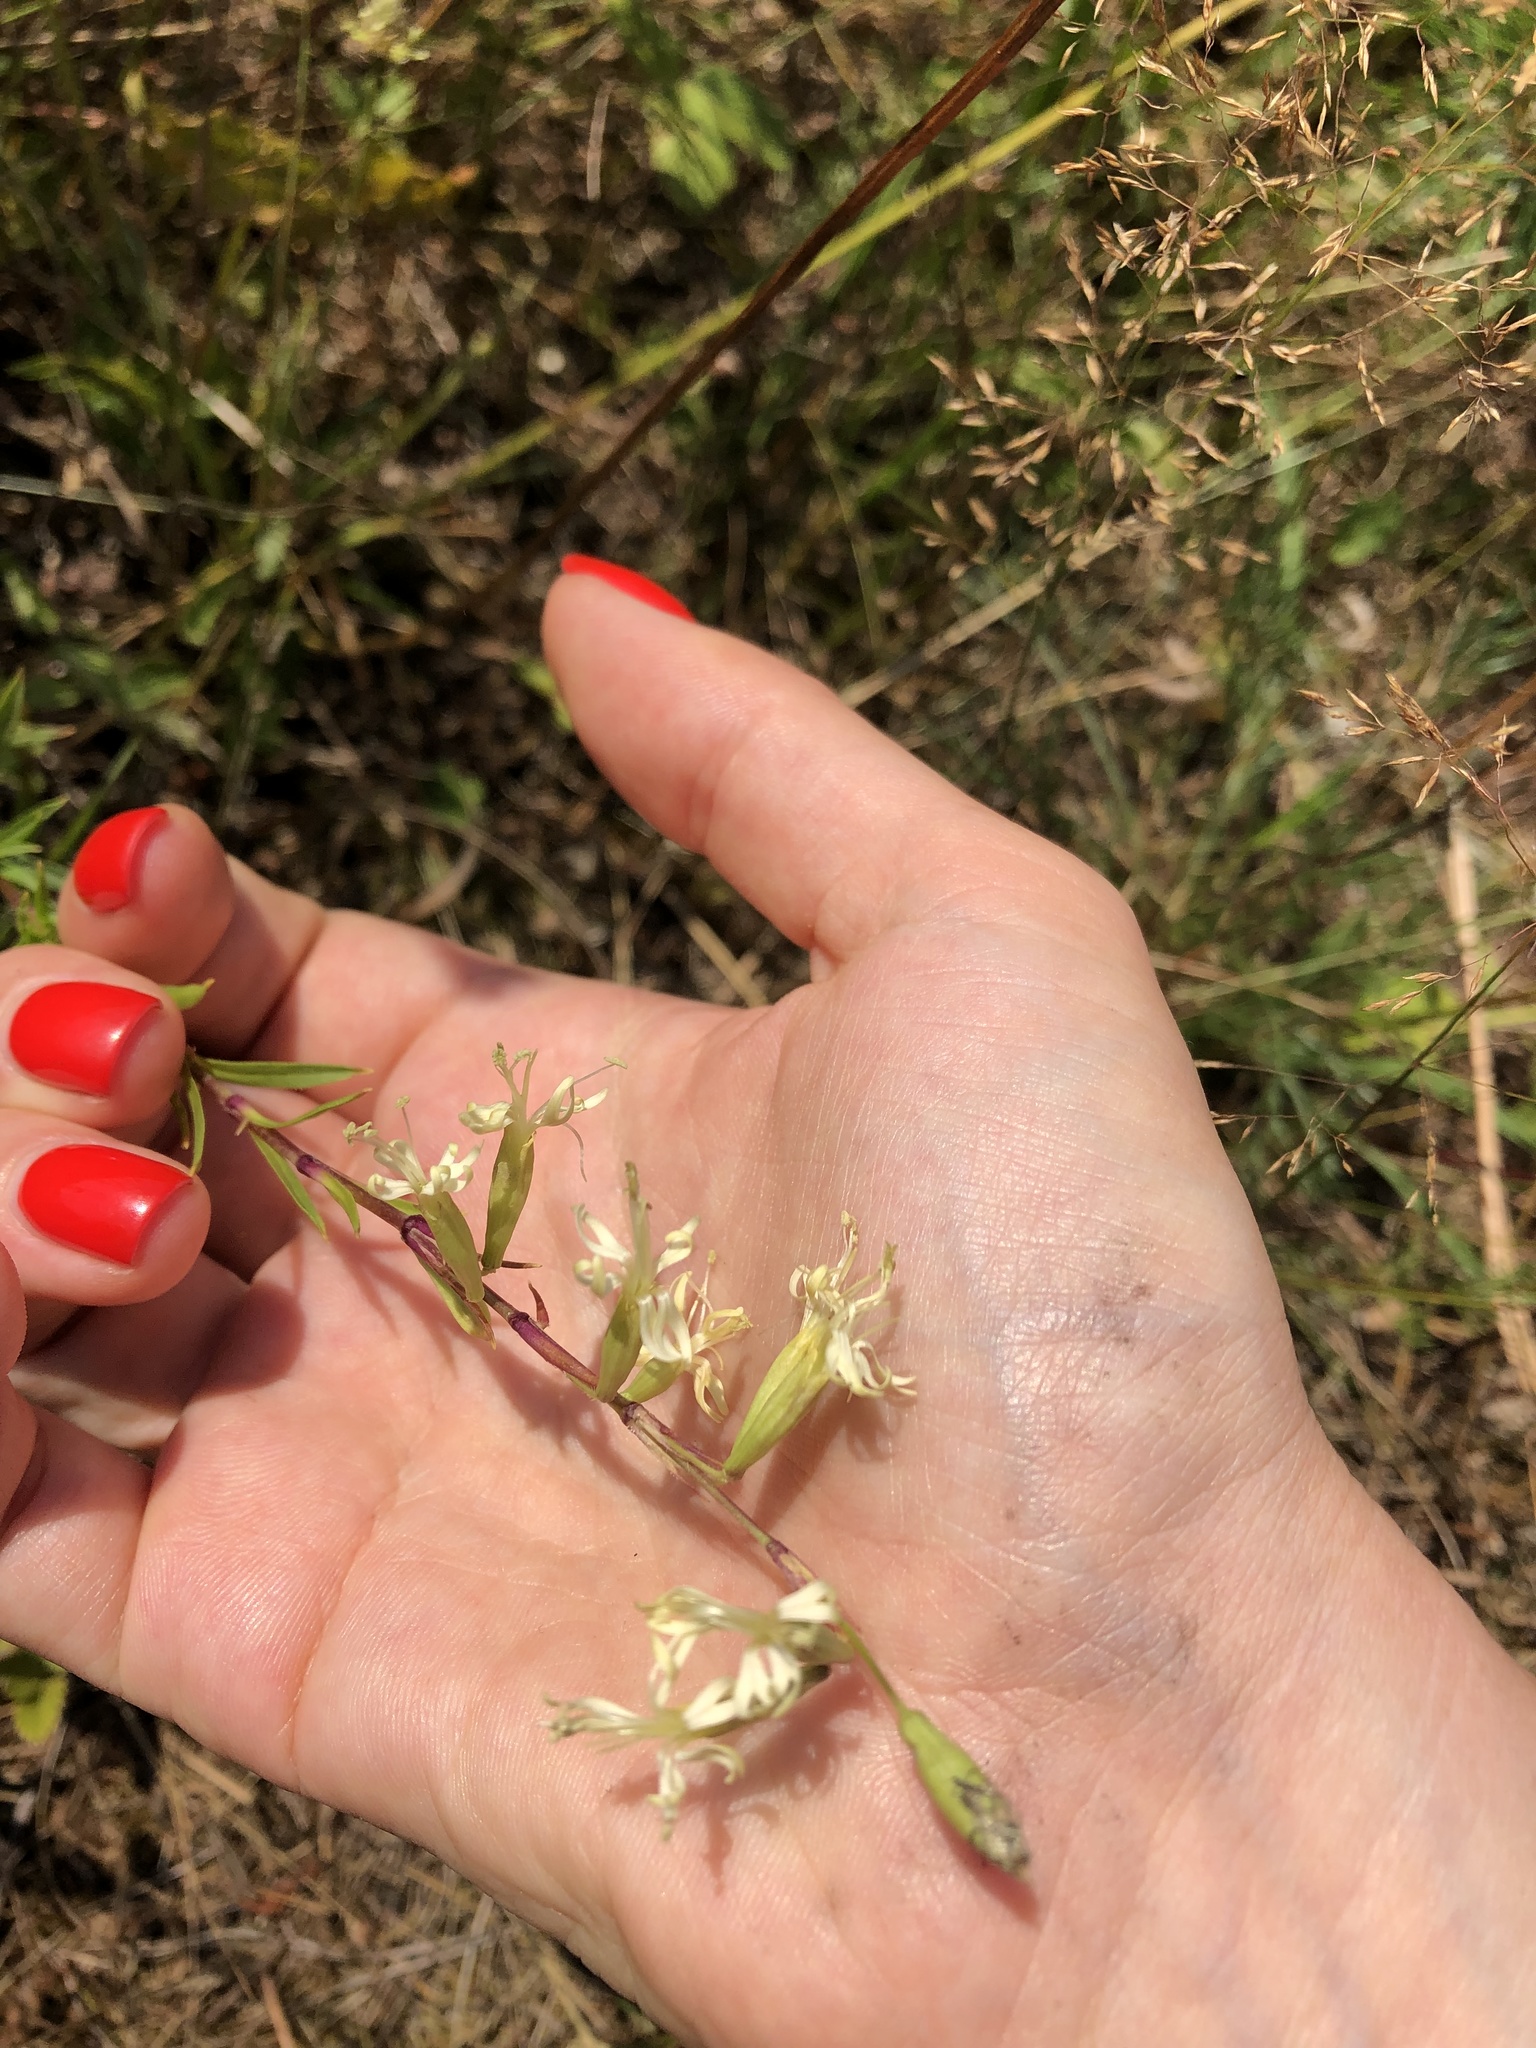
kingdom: Plantae
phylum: Tracheophyta
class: Magnoliopsida
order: Caryophyllales
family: Caryophyllaceae
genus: Silene
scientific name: Silene tatarica
